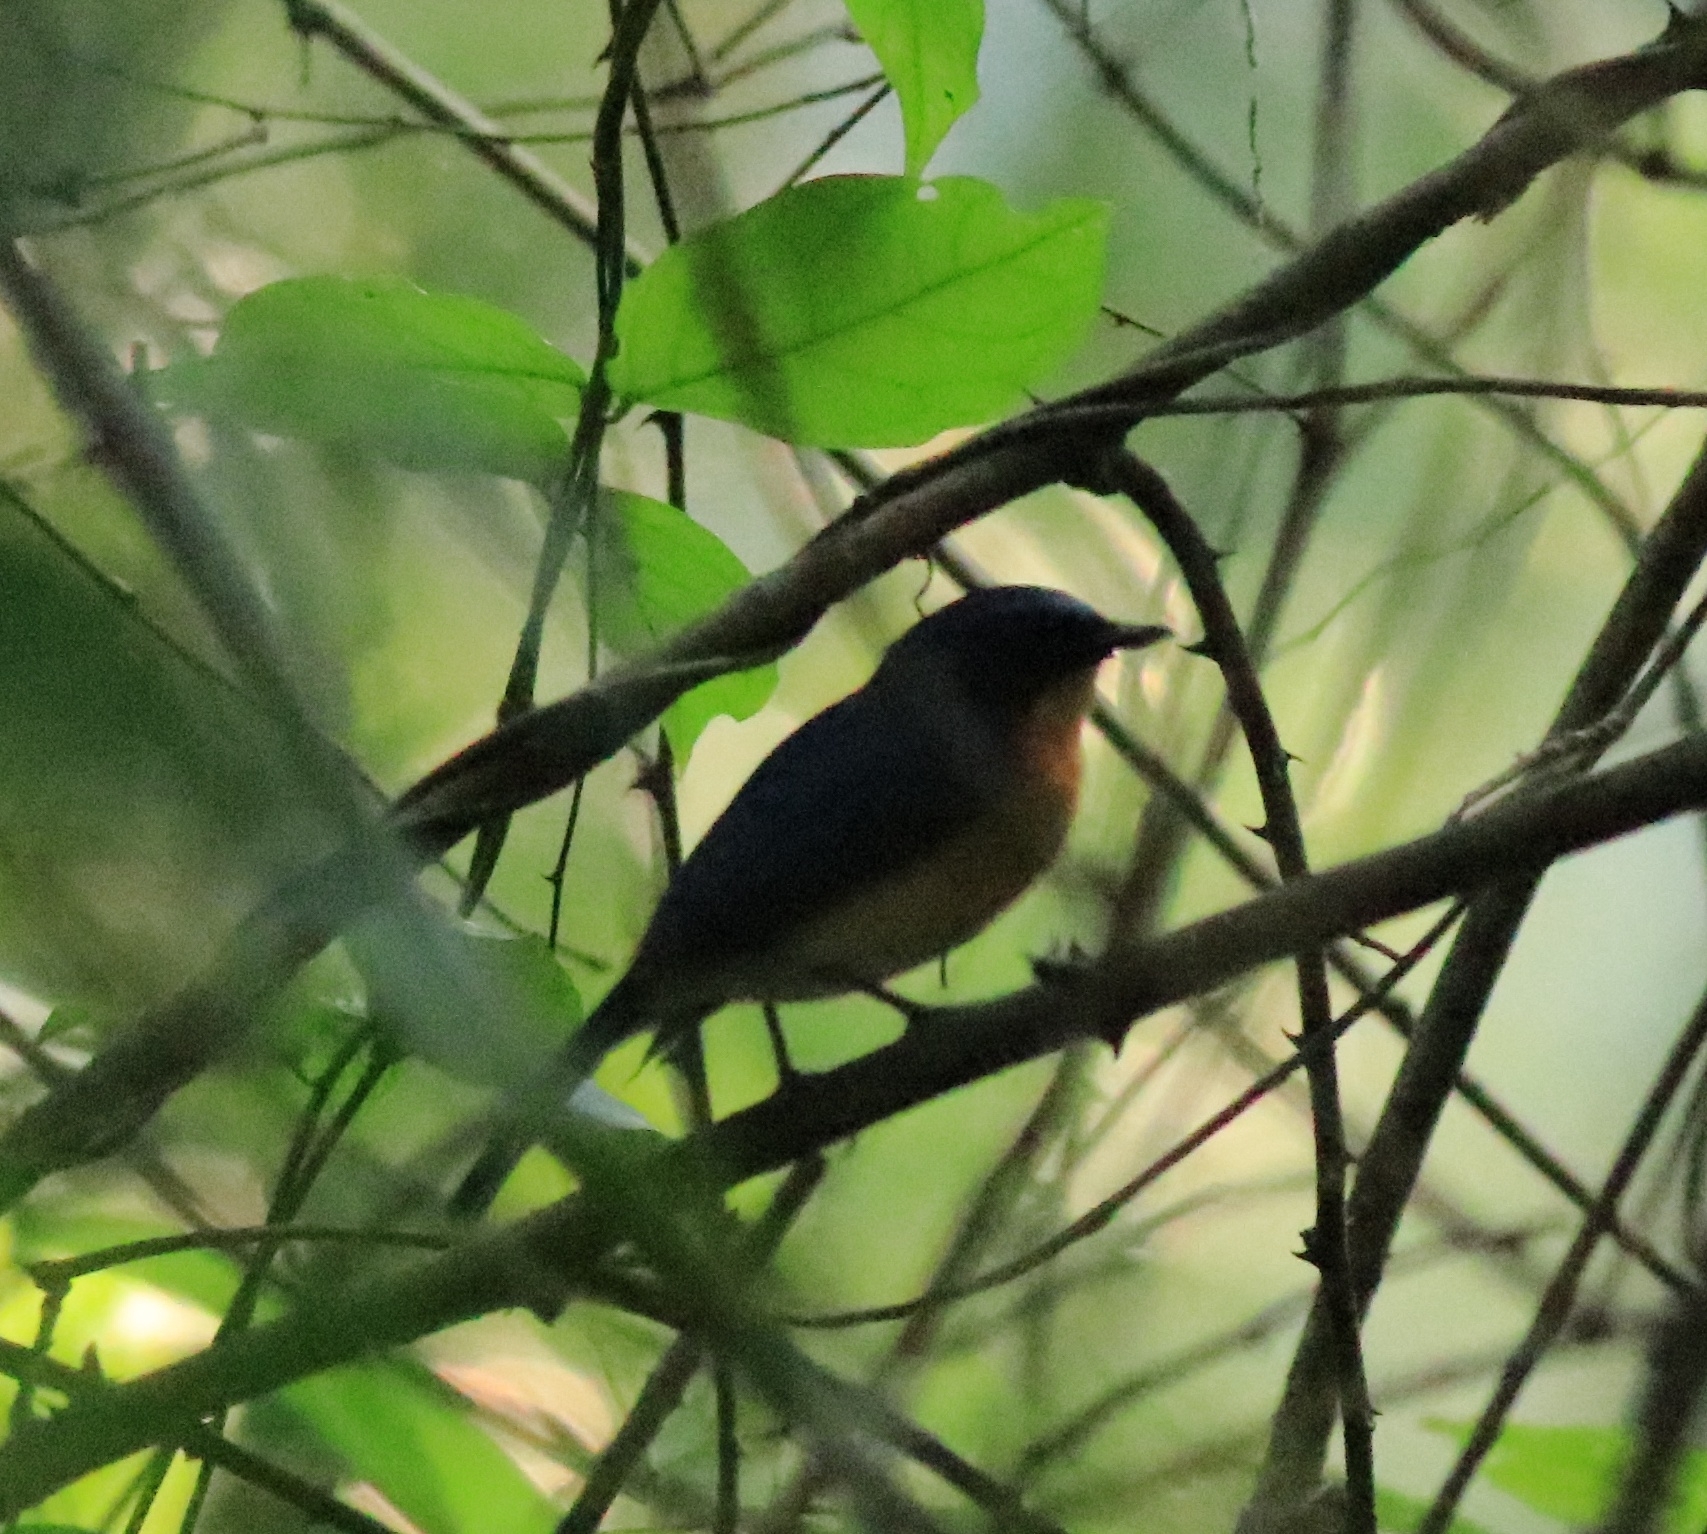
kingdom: Animalia
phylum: Chordata
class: Aves
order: Passeriformes
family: Muscicapidae
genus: Cyornis
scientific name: Cyornis tickelliae
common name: Tickell's blue flycatcher
